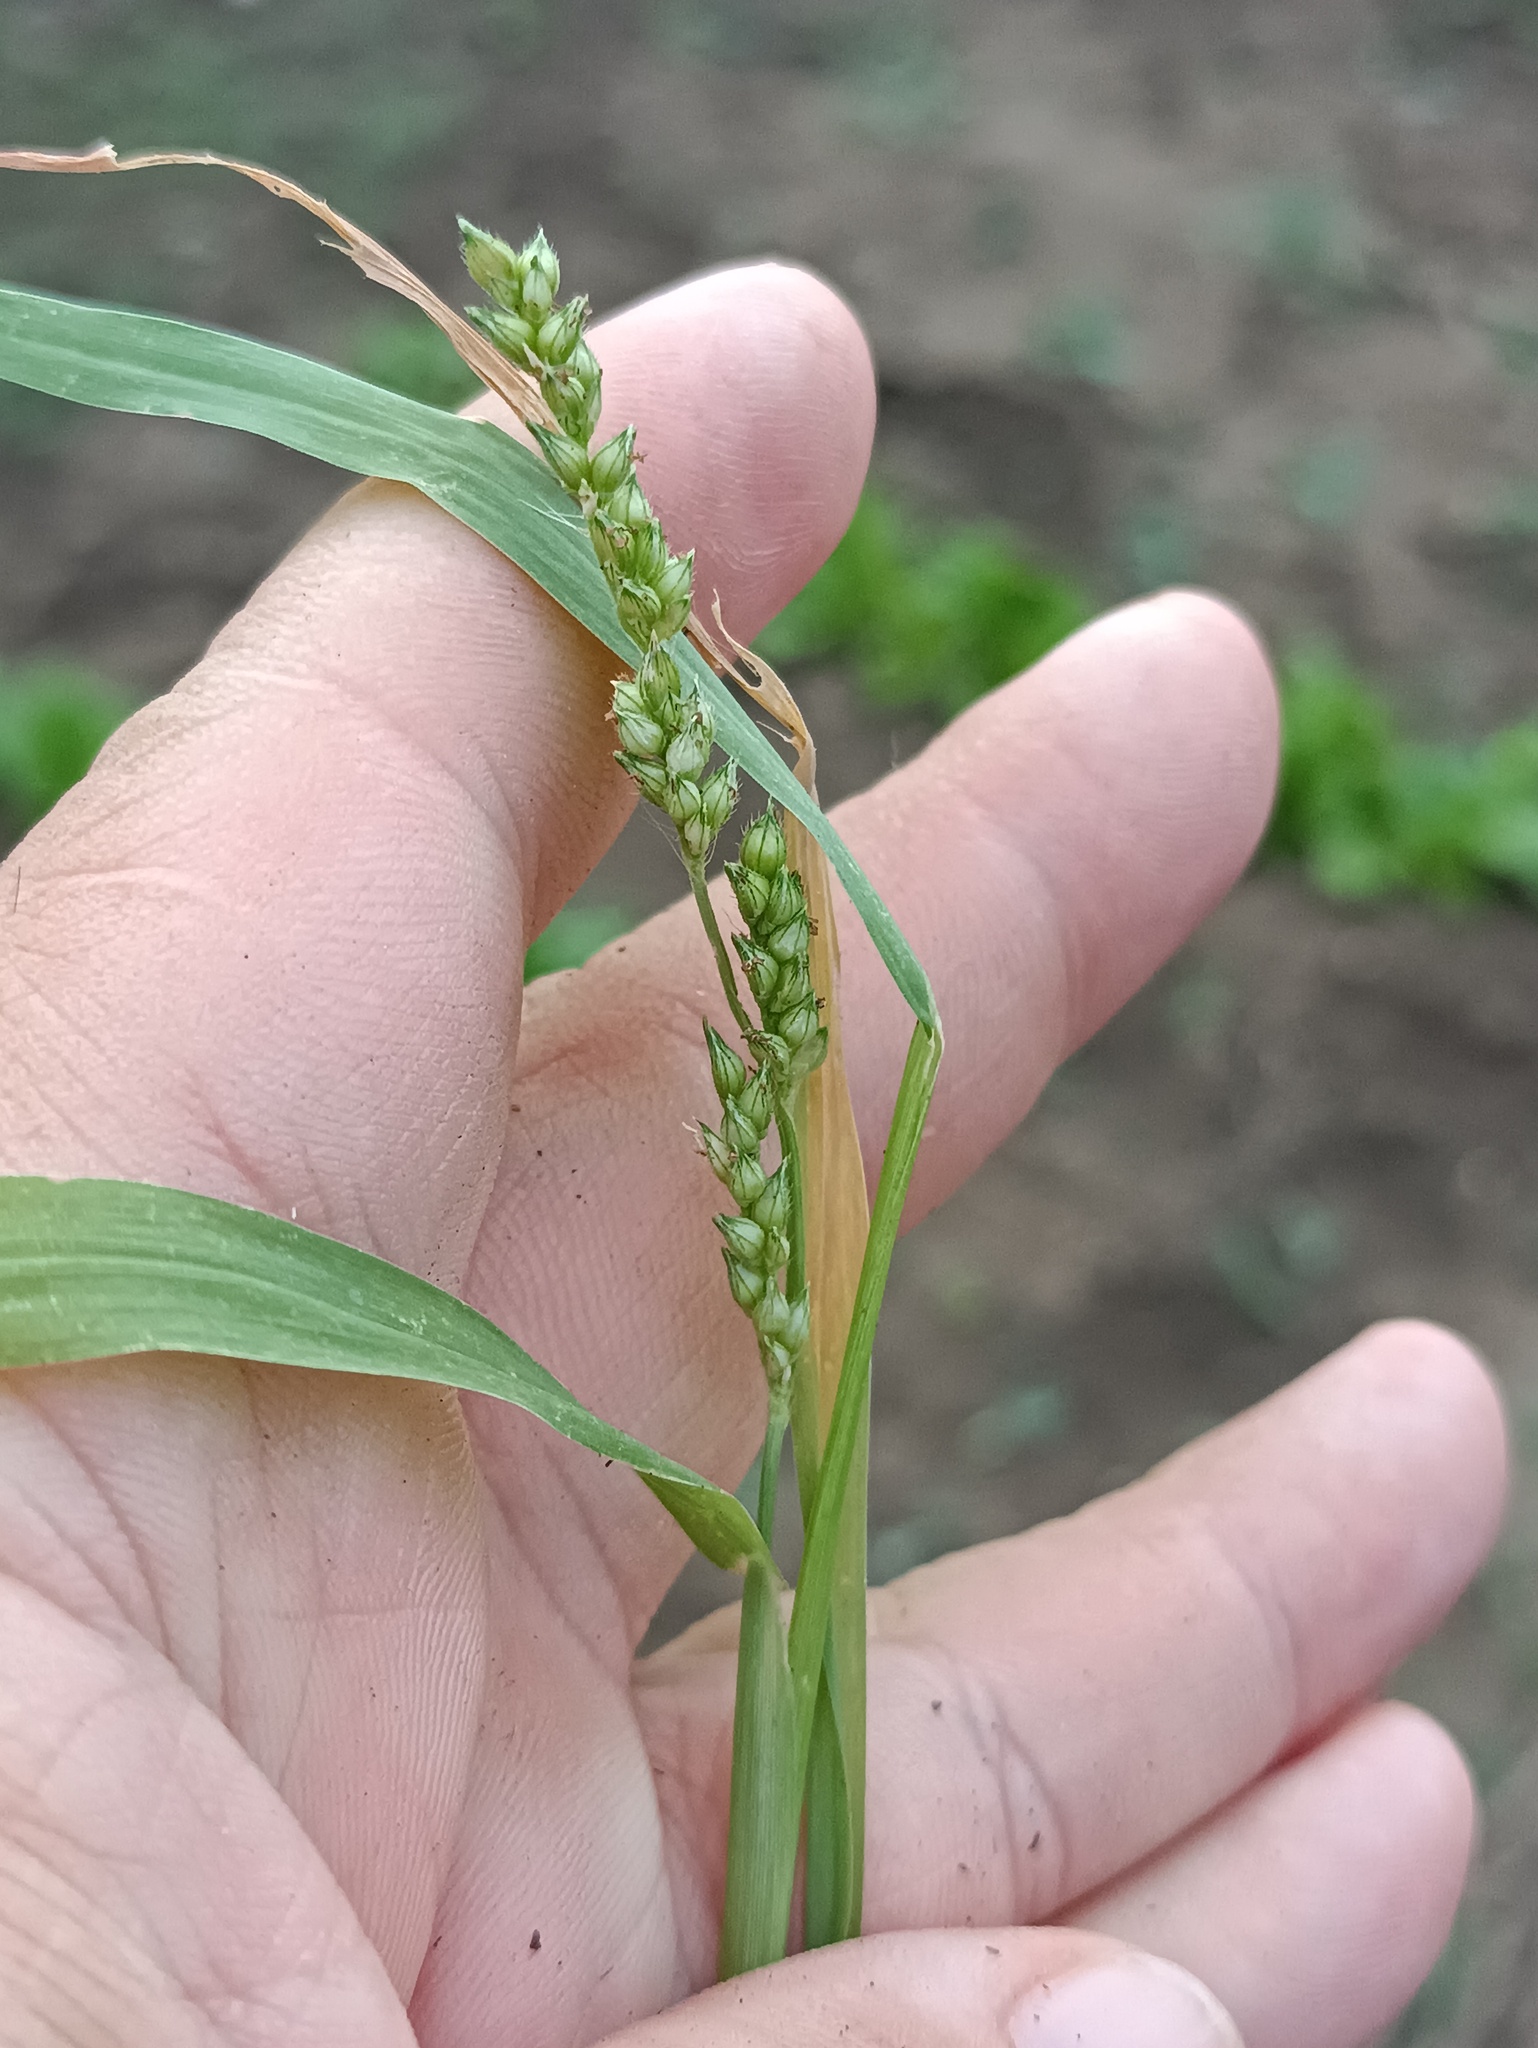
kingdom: Plantae
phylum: Tracheophyta
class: Liliopsida
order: Poales
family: Poaceae
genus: Echinochloa
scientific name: Echinochloa crus-galli
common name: Cockspur
